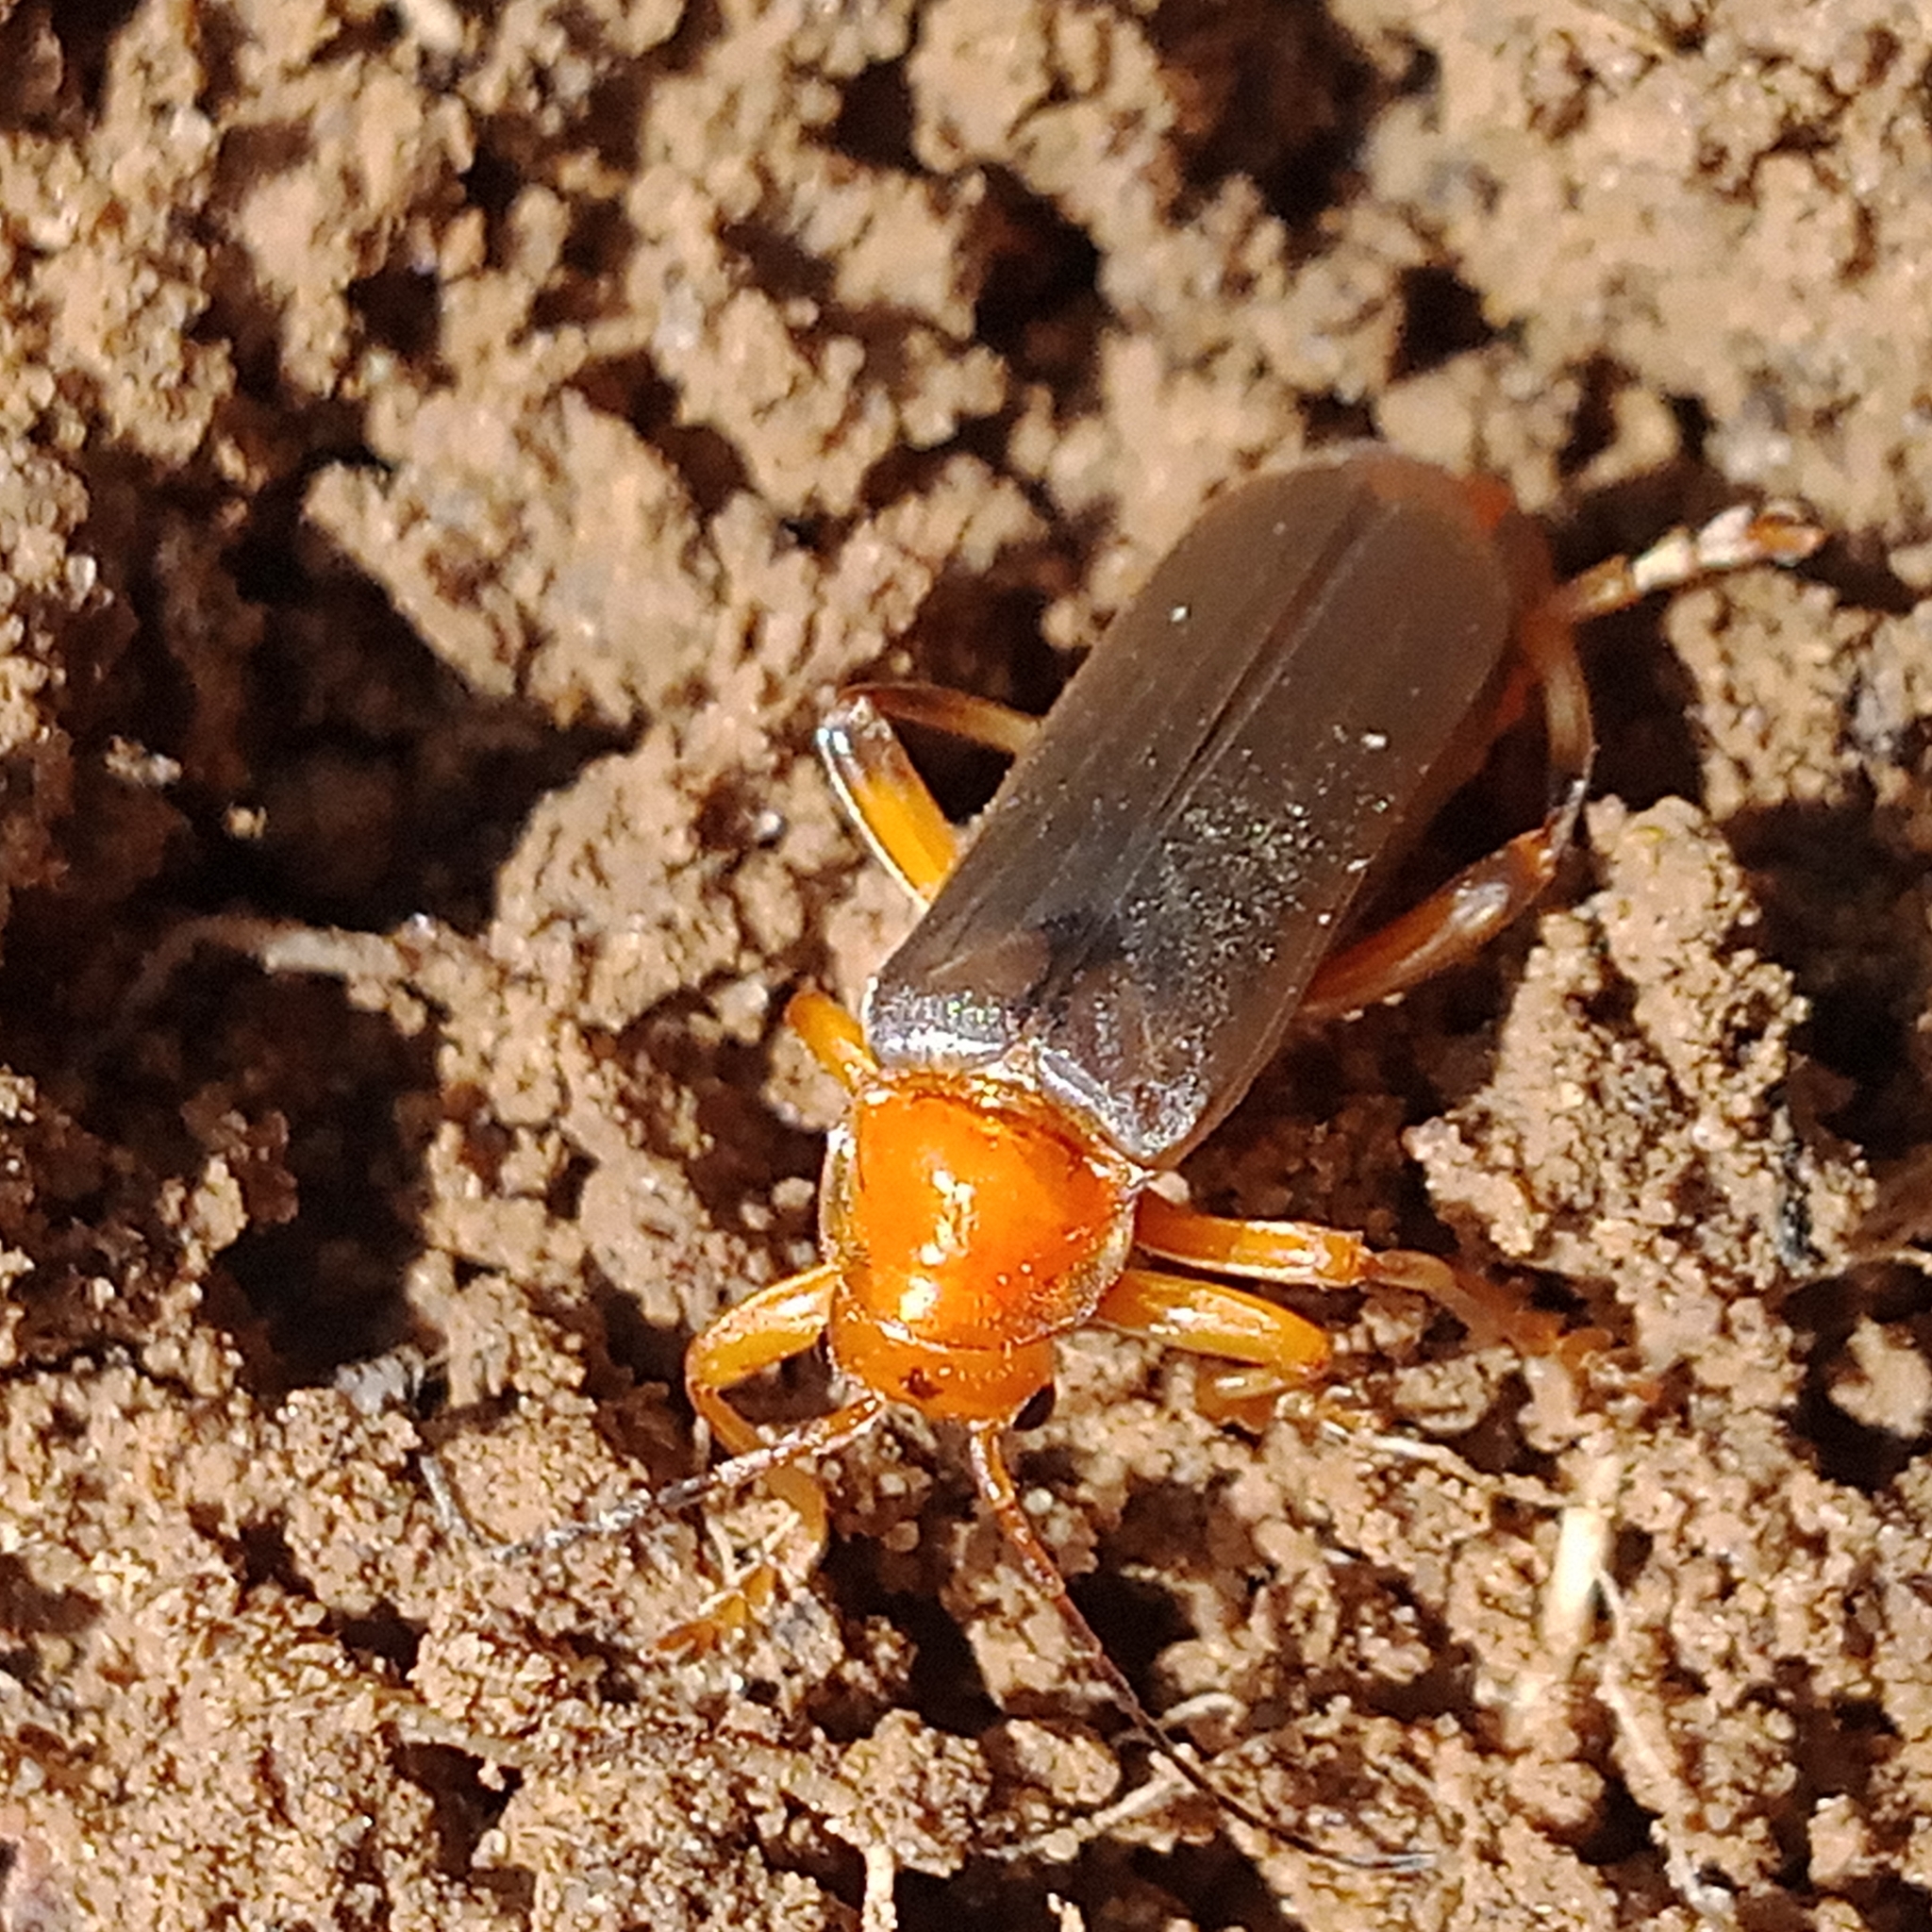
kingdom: Animalia
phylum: Arthropoda
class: Insecta
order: Coleoptera
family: Cantharidae
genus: Cantharis
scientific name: Cantharis livida
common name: Livid soldier beetle
